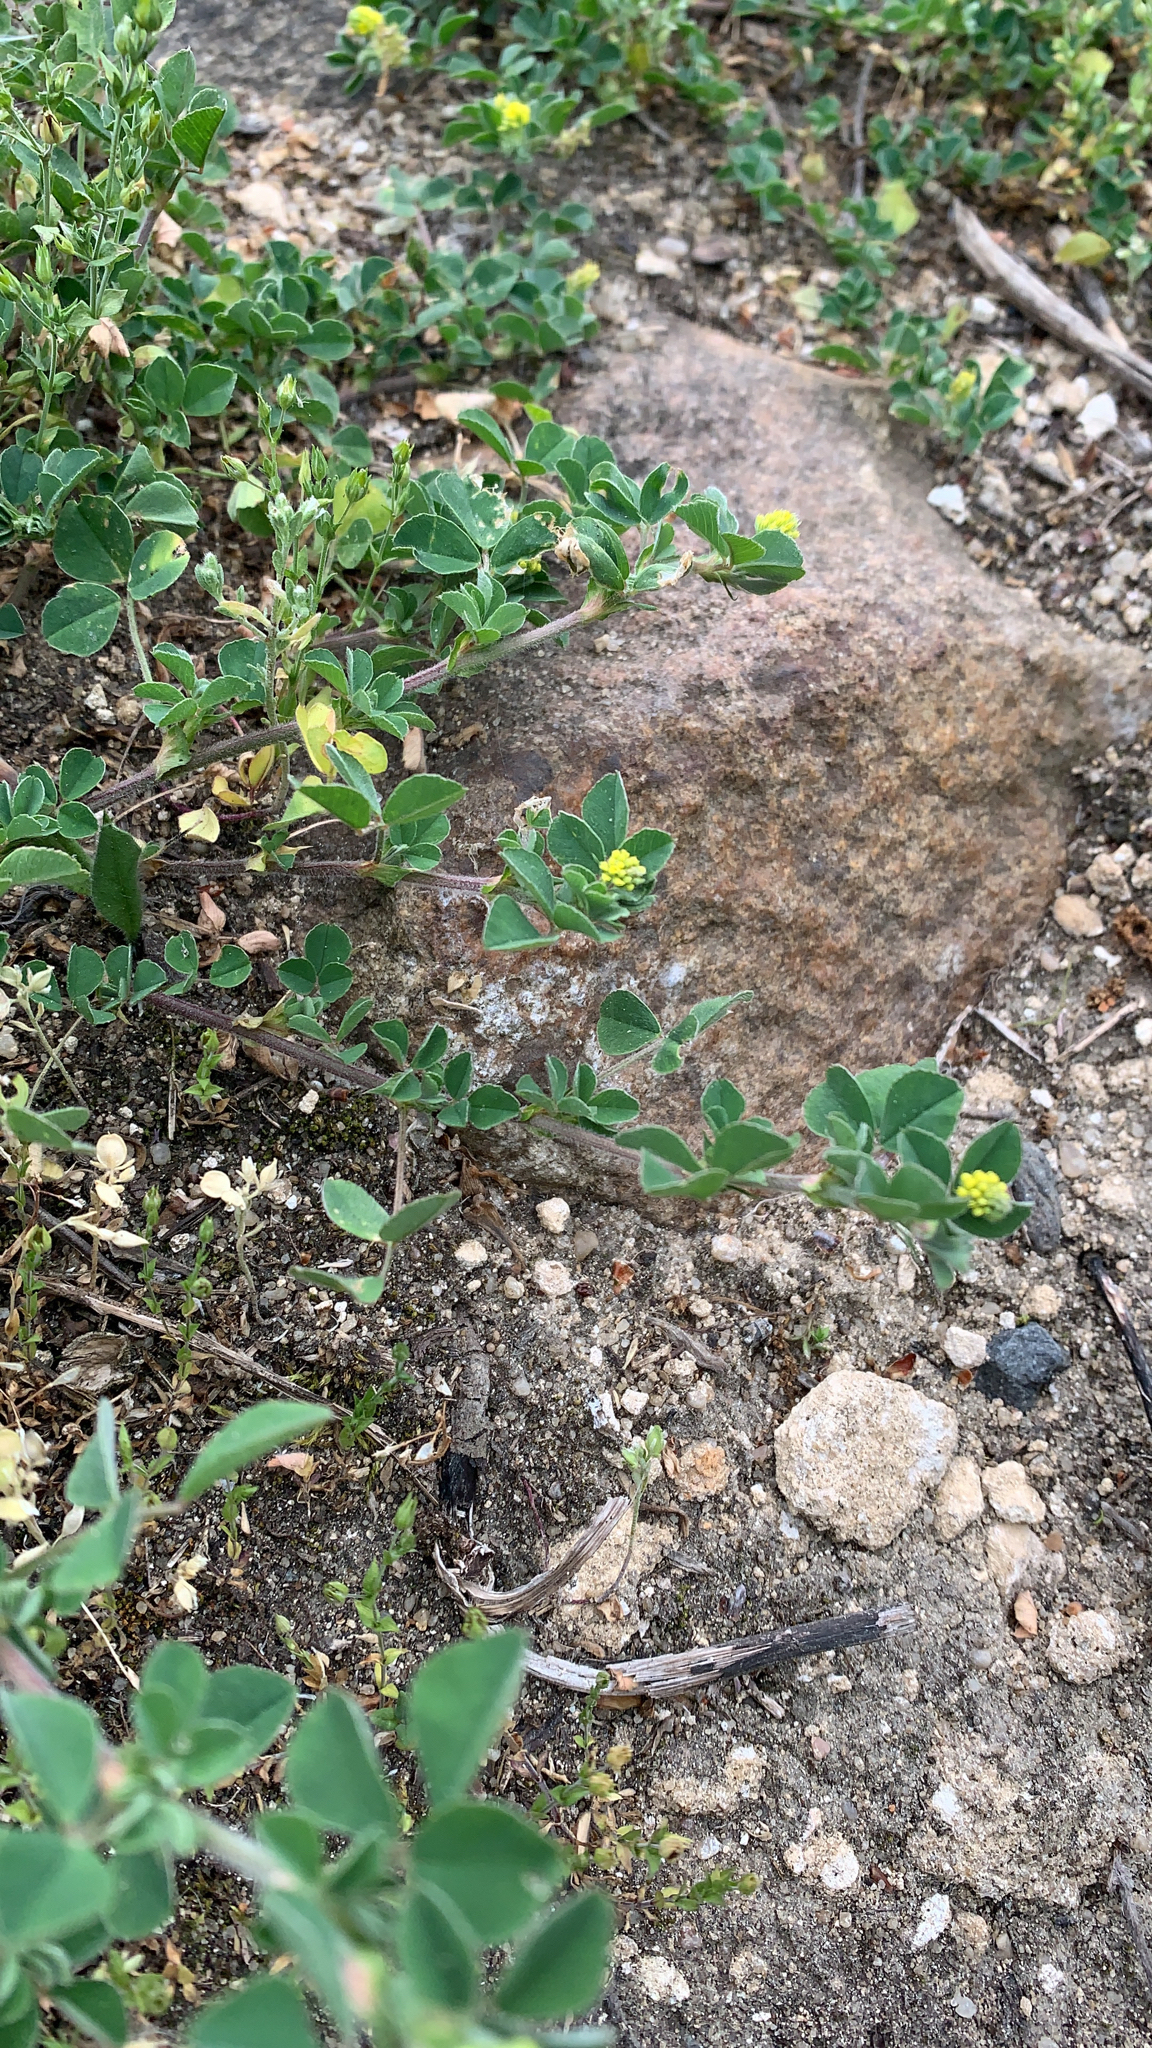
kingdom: Plantae
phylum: Tracheophyta
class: Magnoliopsida
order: Fabales
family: Fabaceae
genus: Medicago
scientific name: Medicago lupulina
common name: Black medick
